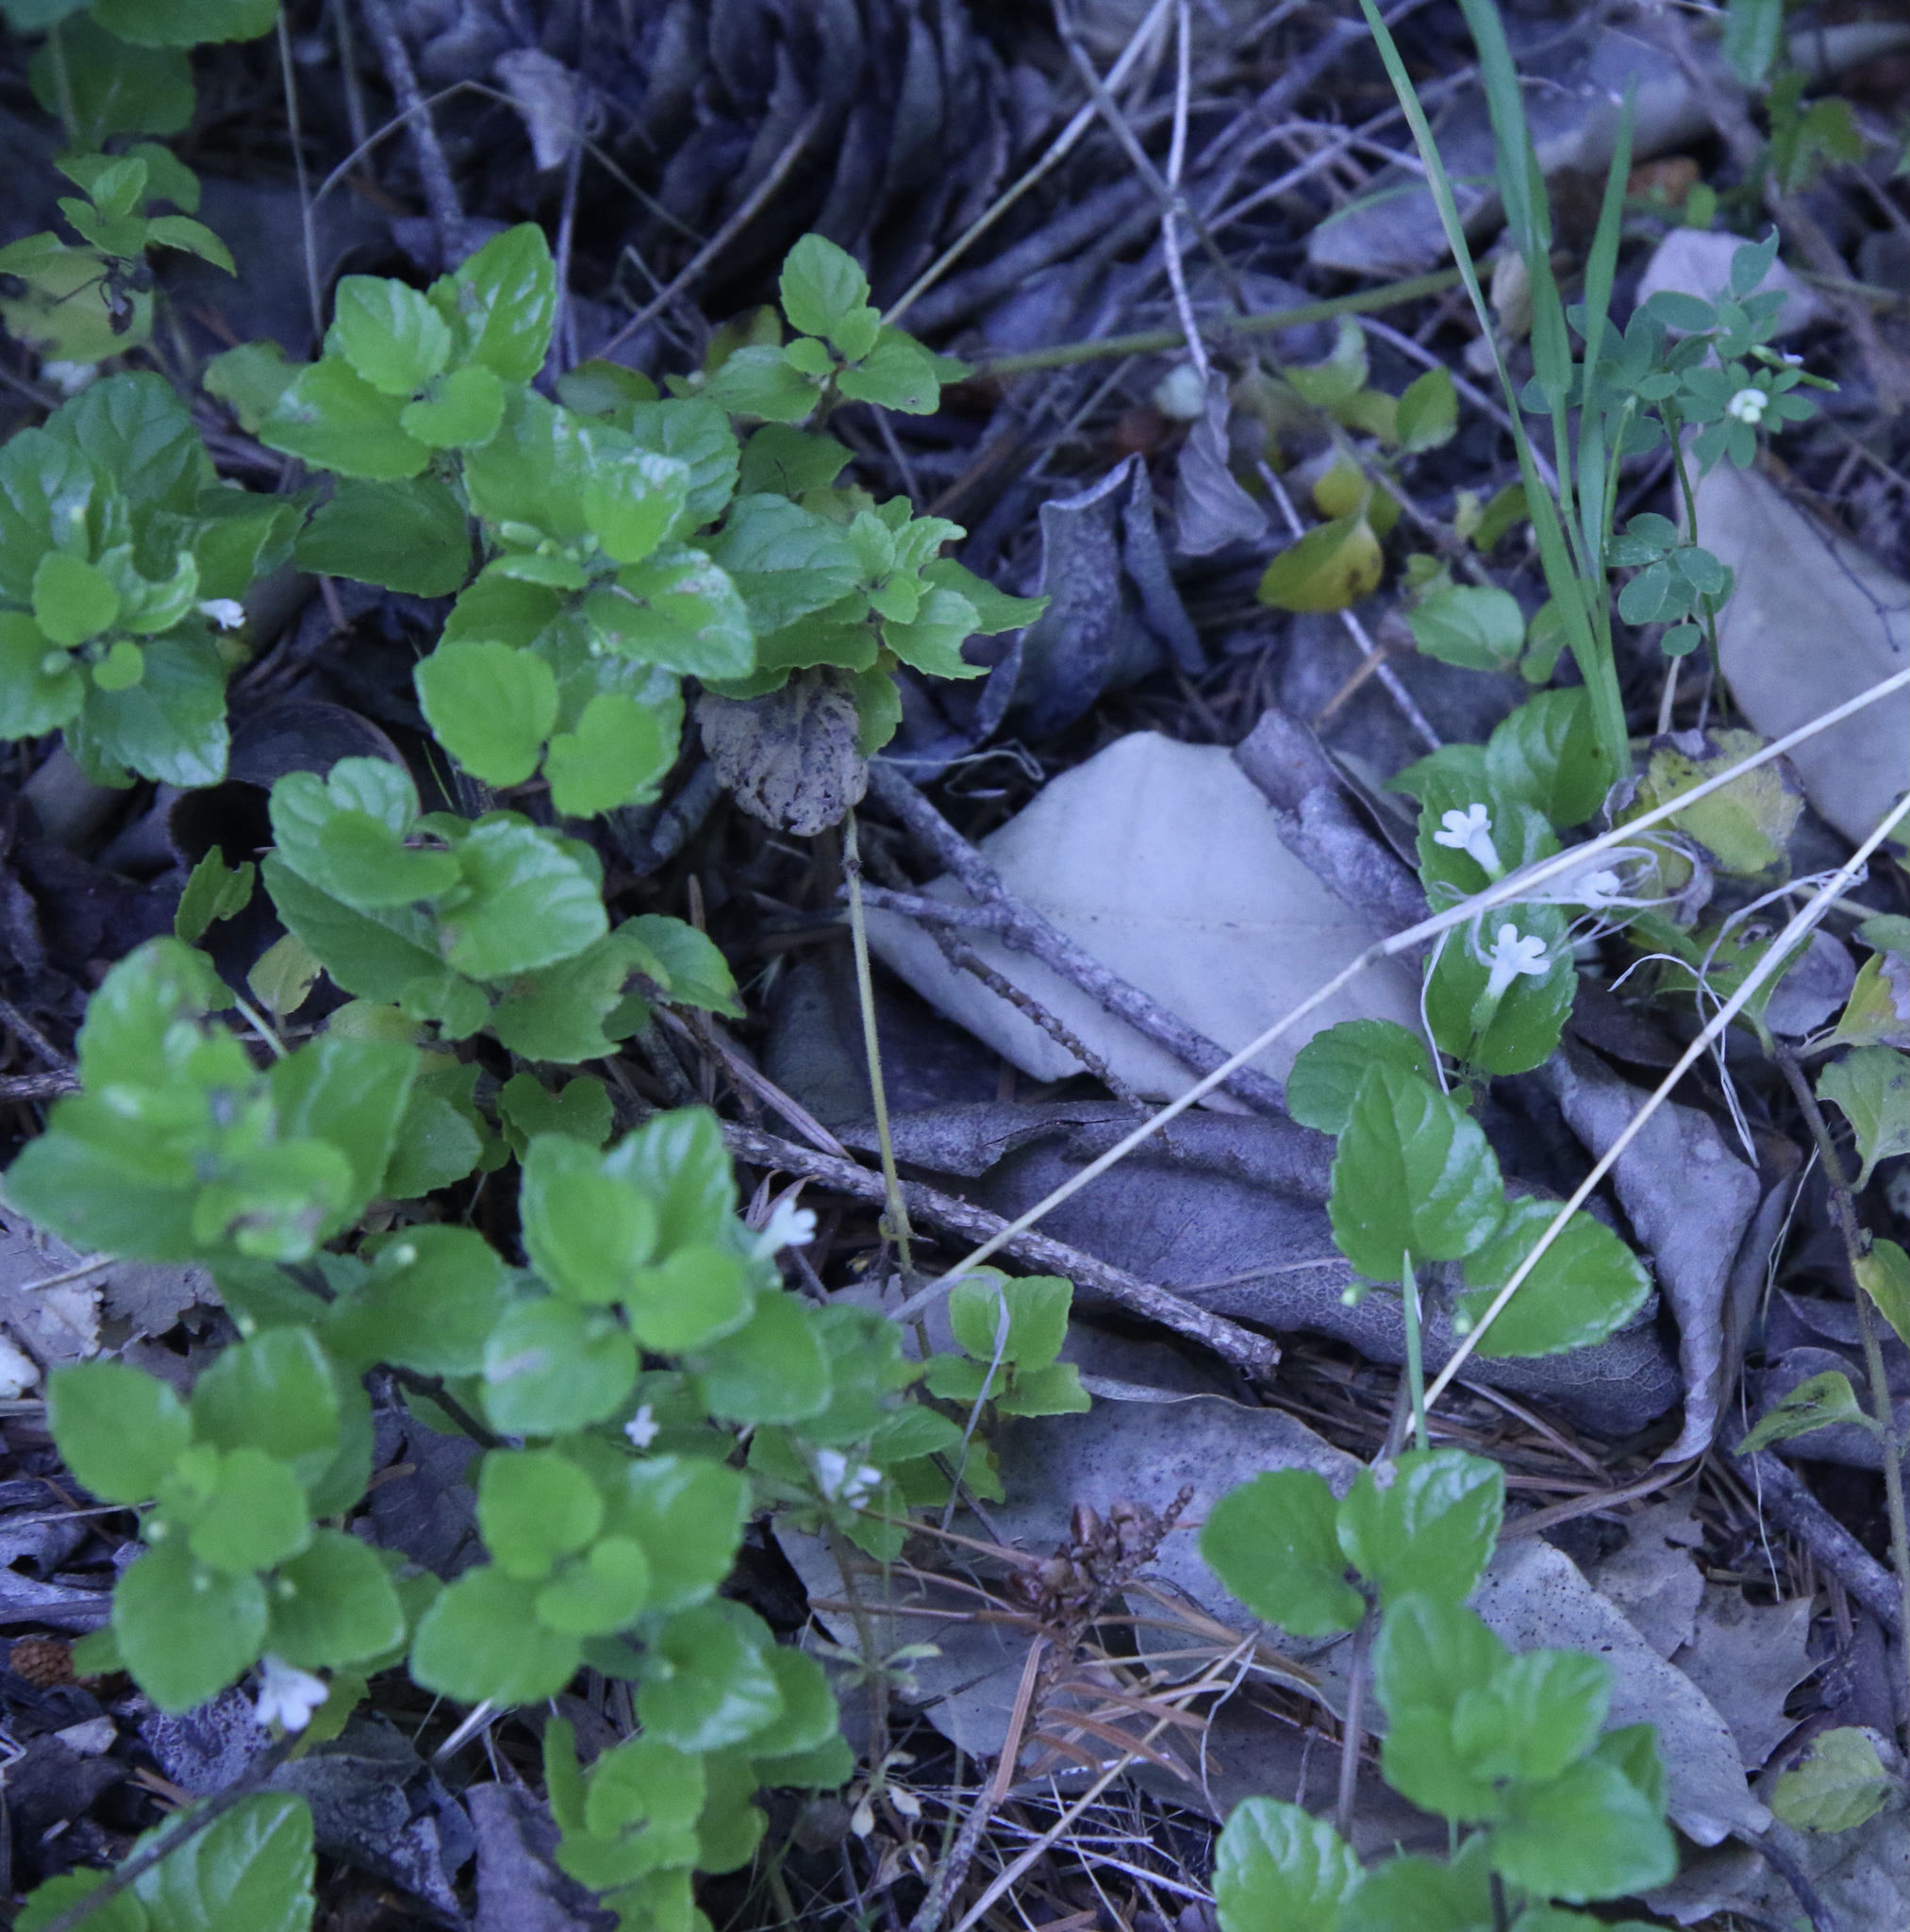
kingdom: Plantae
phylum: Tracheophyta
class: Magnoliopsida
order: Lamiales
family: Lamiaceae
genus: Micromeria
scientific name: Micromeria douglasii
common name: Yerba buena
